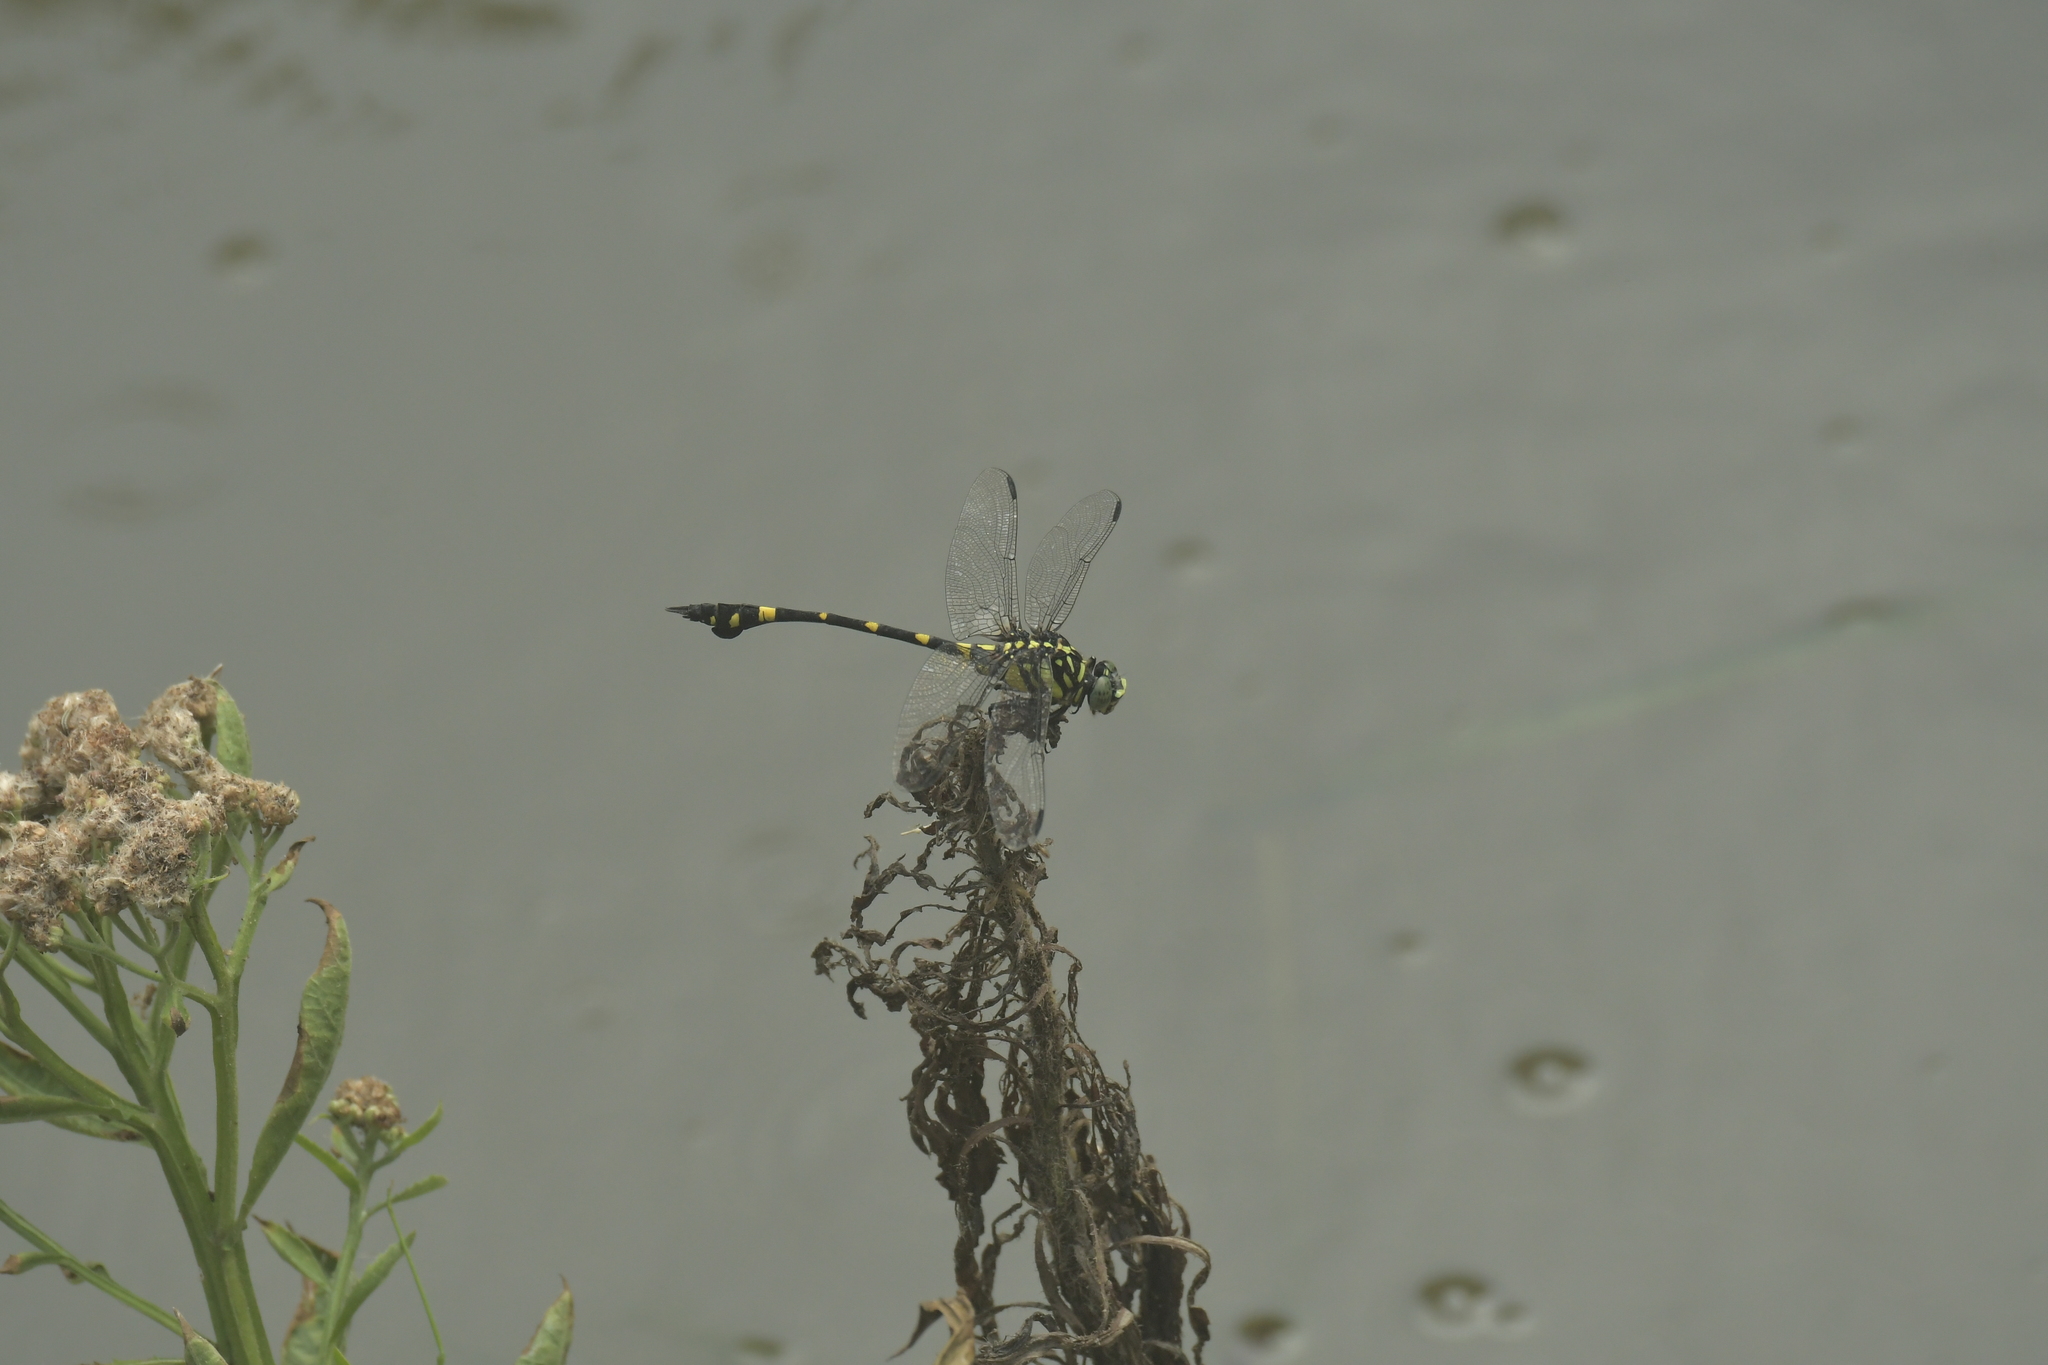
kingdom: Animalia
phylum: Arthropoda
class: Insecta
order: Odonata
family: Gomphidae
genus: Ictinogomphus
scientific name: Ictinogomphus rapax
